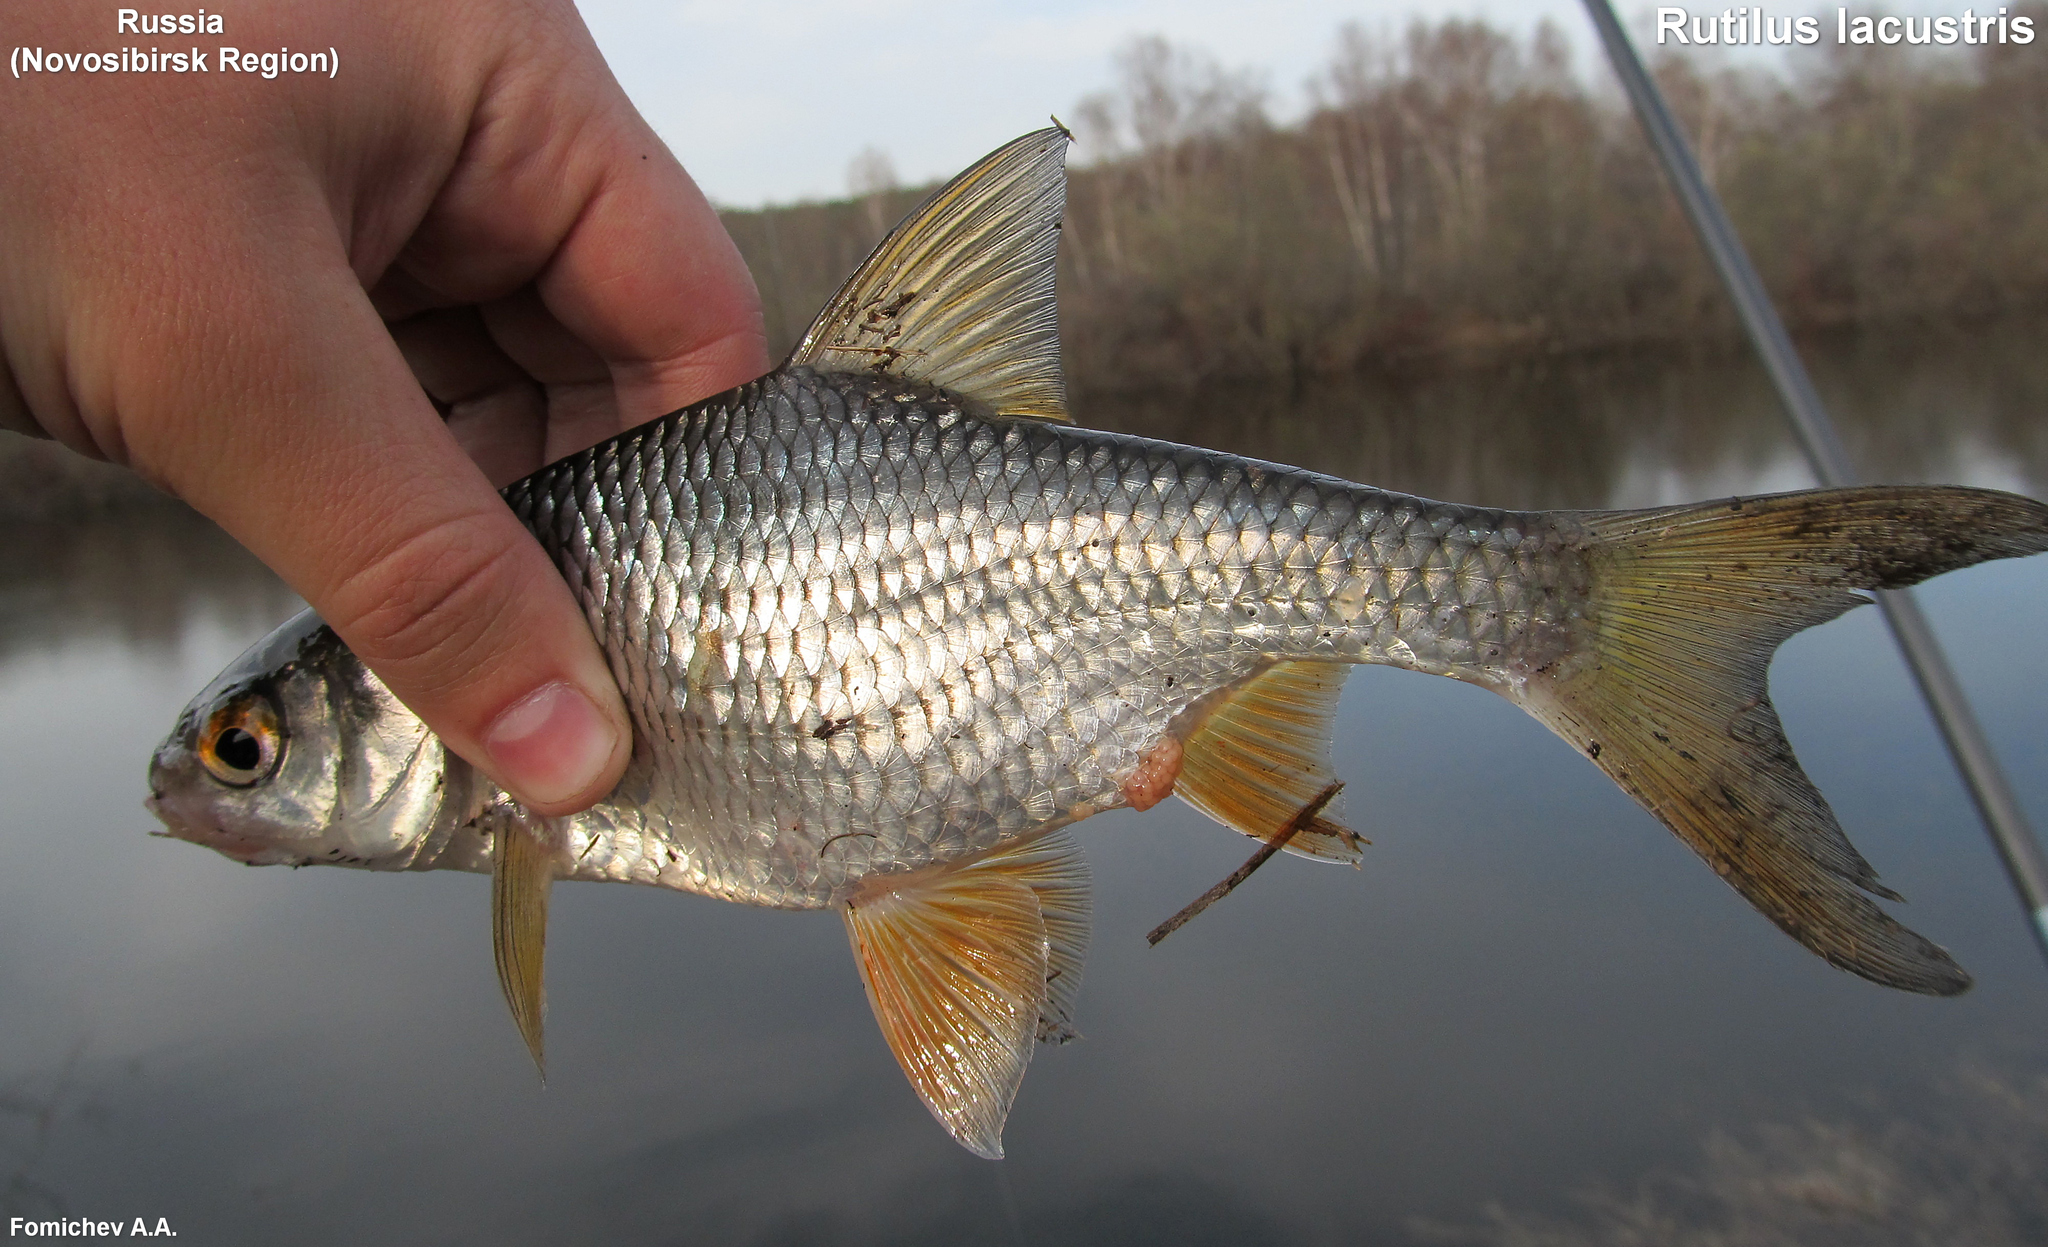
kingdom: Animalia
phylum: Chordata
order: Cypriniformes
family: Cyprinidae
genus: Rutilus
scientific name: Rutilus rutilus
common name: Roach
